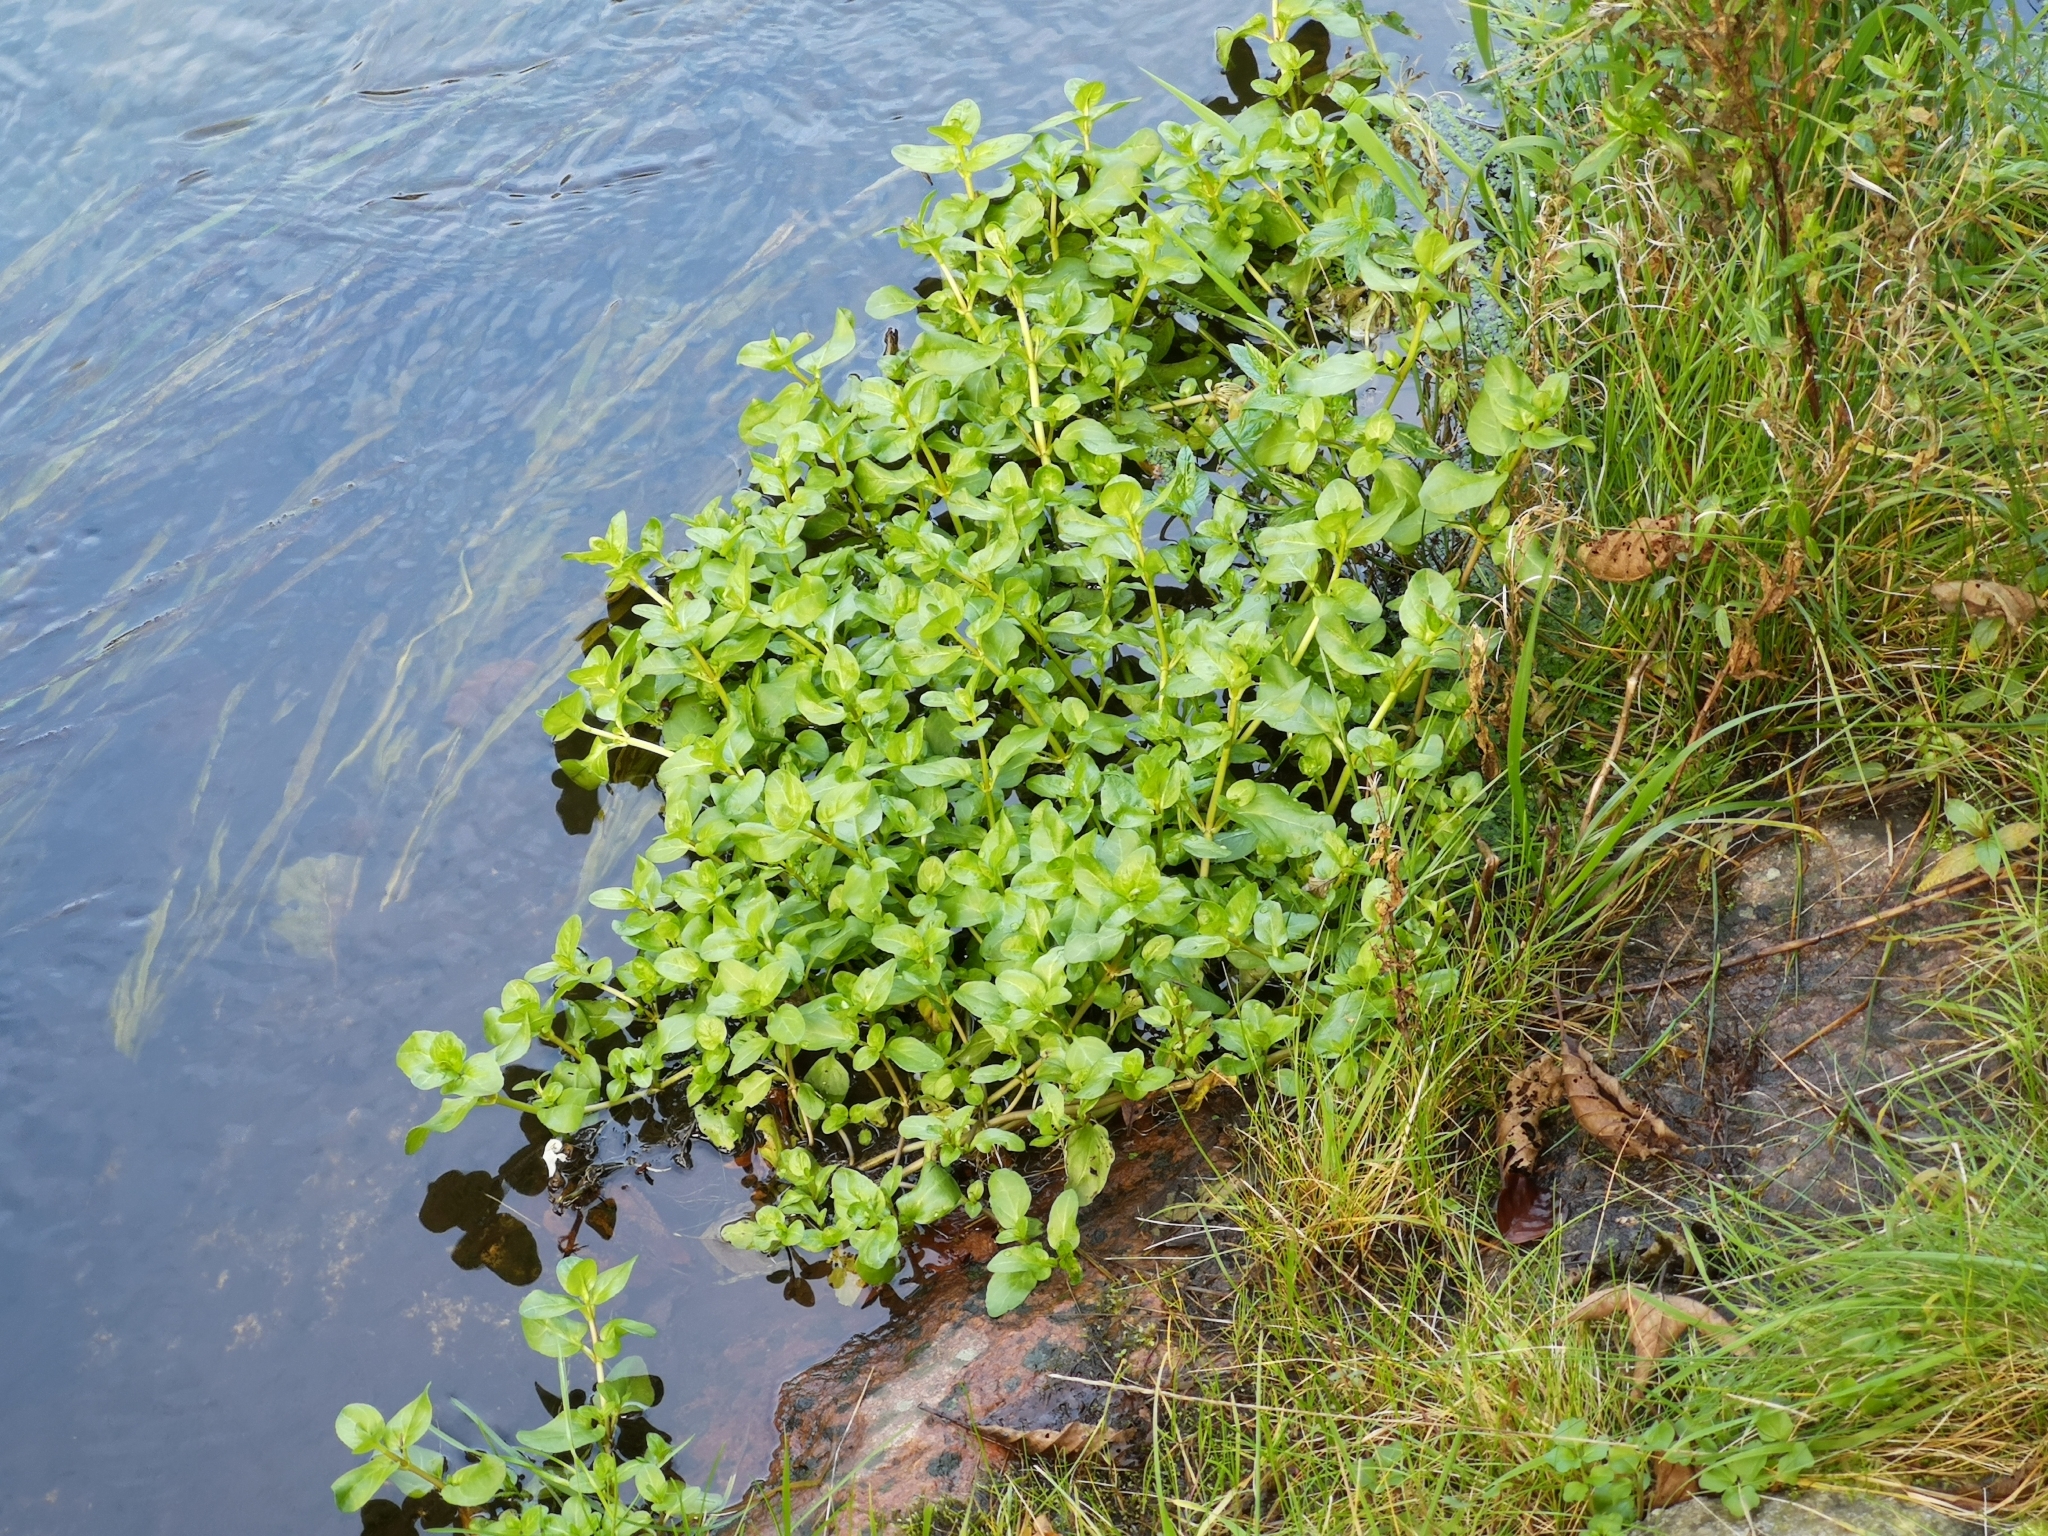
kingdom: Plantae
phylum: Tracheophyta
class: Magnoliopsida
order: Lamiales
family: Plantaginaceae
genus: Veronica
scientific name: Veronica beccabunga
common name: Brooklime
